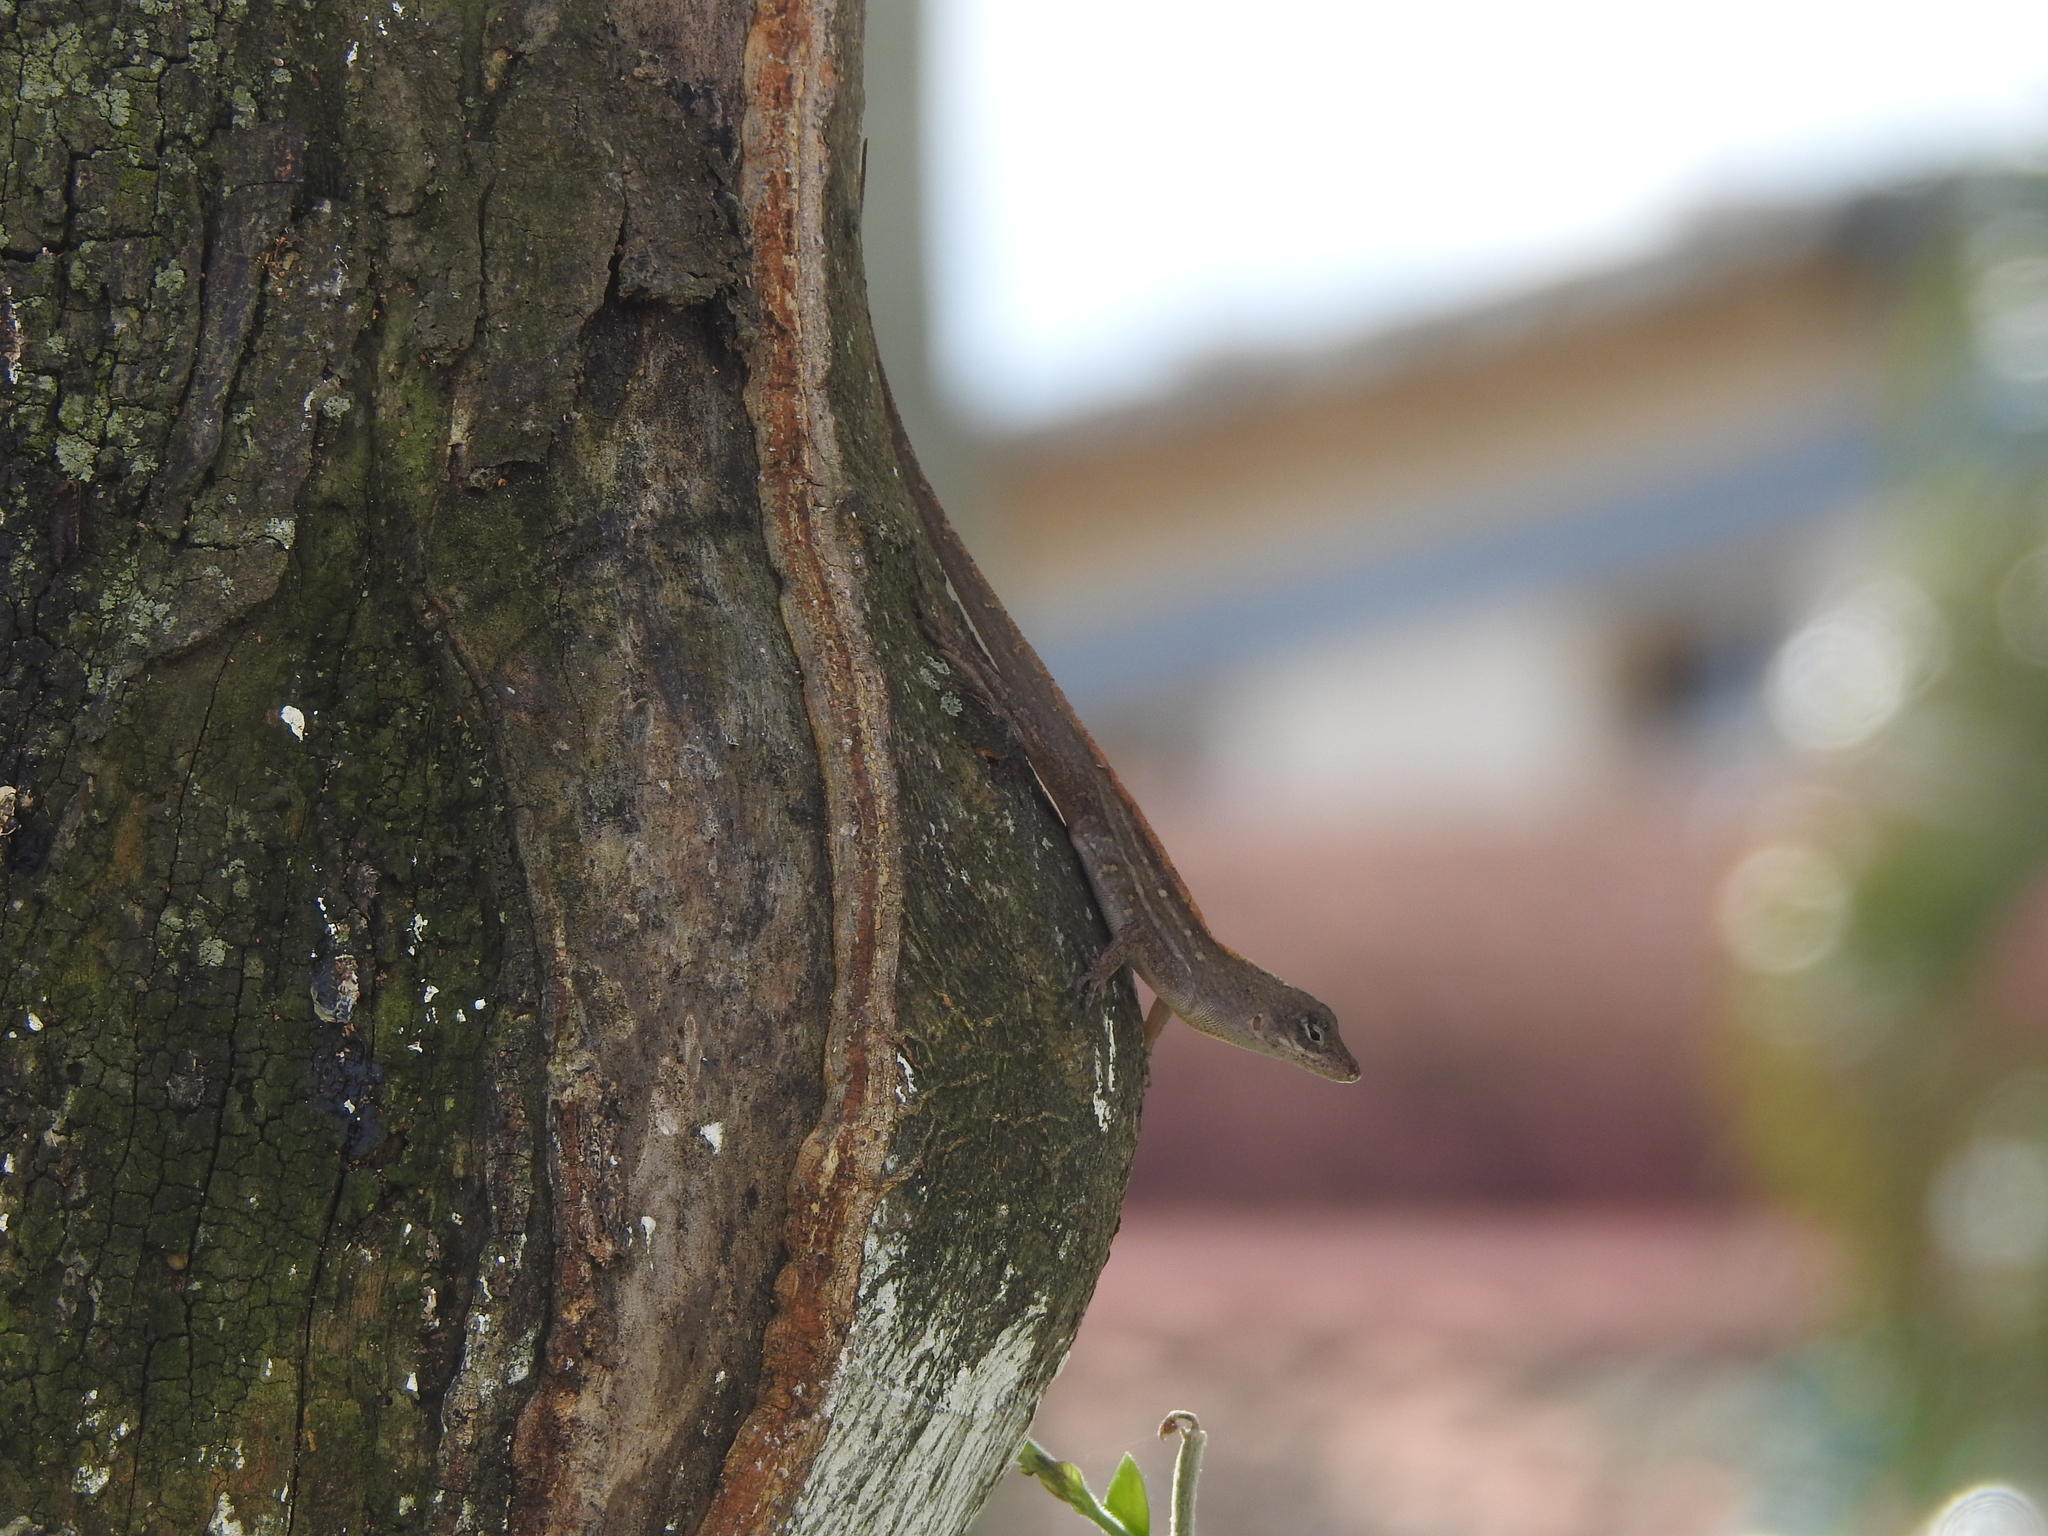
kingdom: Animalia
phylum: Chordata
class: Squamata
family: Dactyloidae
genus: Anolis
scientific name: Anolis sagrei
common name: Brown anole
